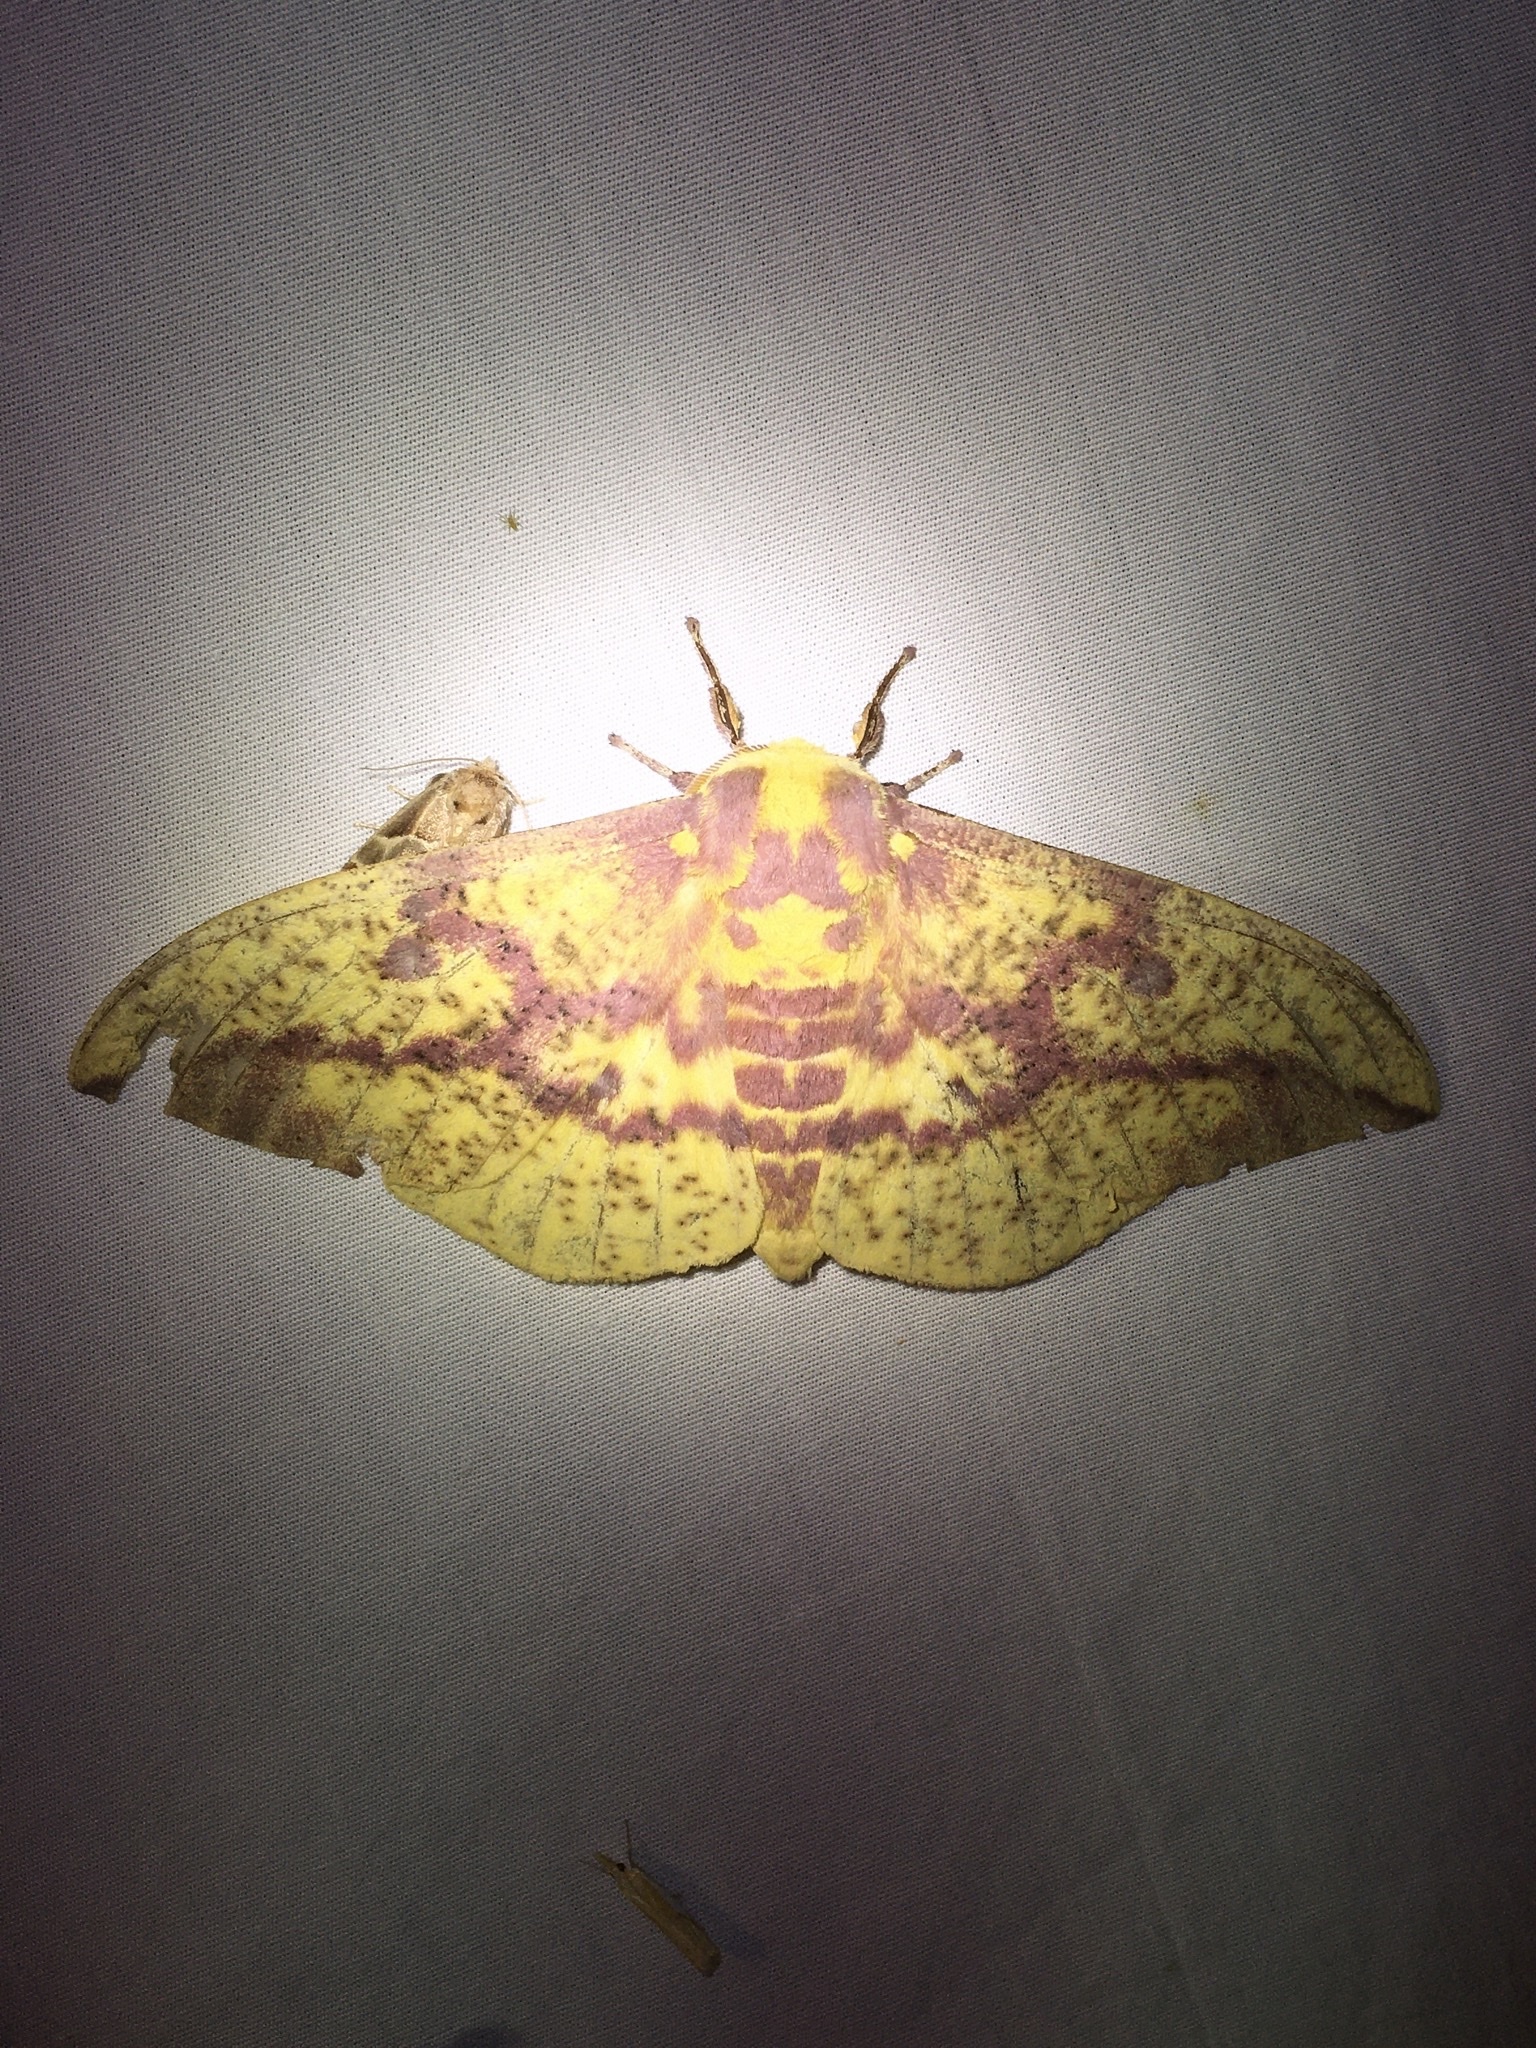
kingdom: Animalia
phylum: Arthropoda
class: Insecta
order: Lepidoptera
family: Saturniidae
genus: Eacles
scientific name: Eacles
